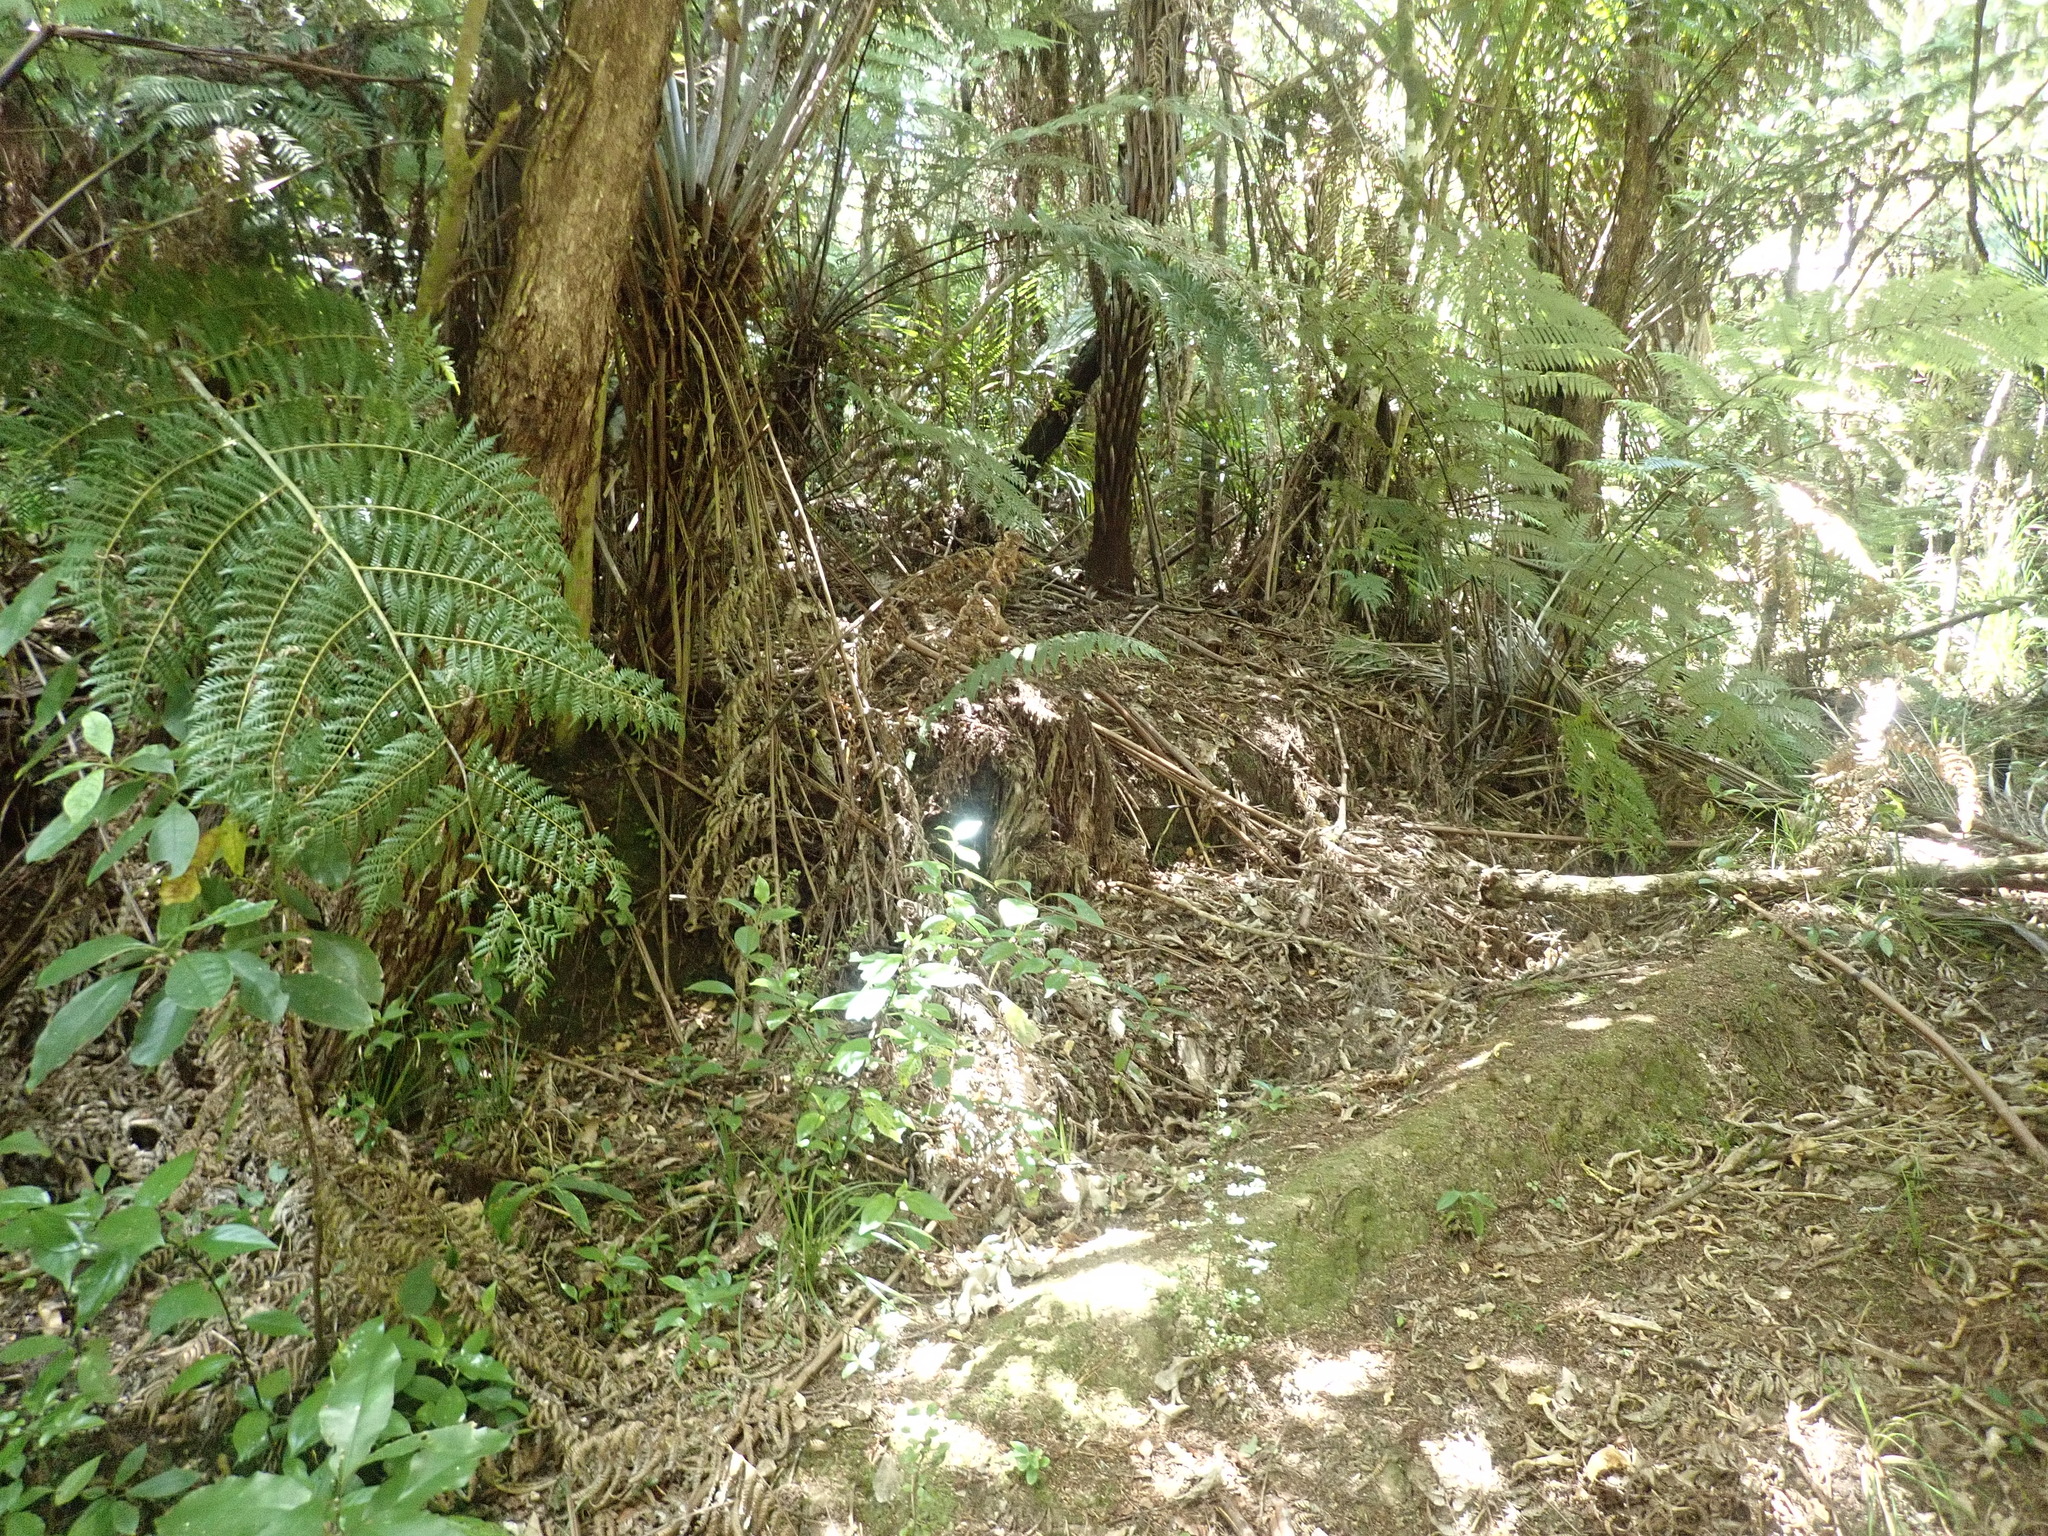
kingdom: Plantae
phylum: Tracheophyta
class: Polypodiopsida
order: Cyatheales
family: Cyatheaceae
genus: Alsophila
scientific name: Alsophila dealbata
